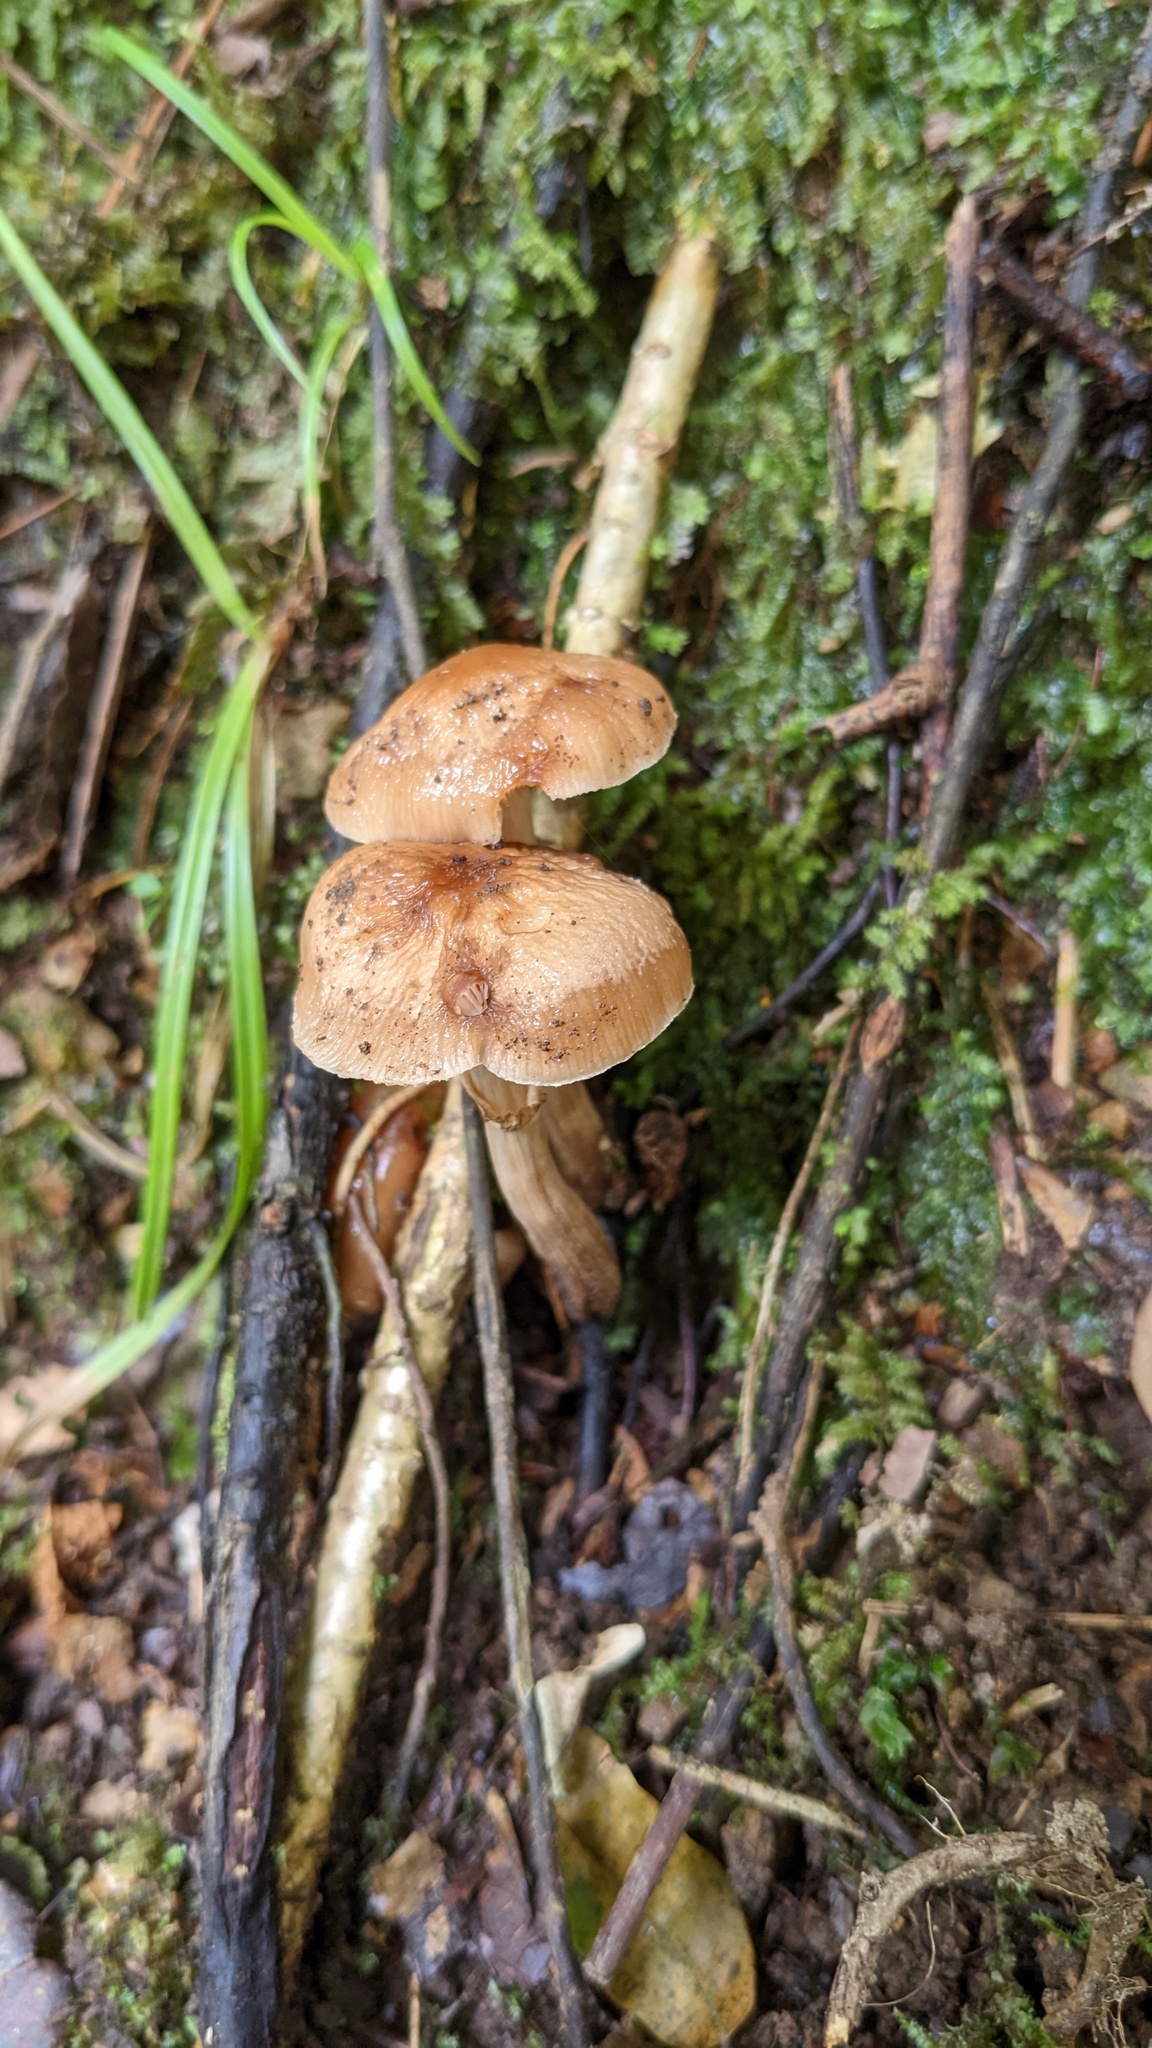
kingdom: Fungi
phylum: Basidiomycota
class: Agaricomycetes
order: Agaricales
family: Tubariaceae
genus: Cyclocybe
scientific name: Cyclocybe erebia
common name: Dark fieldcap
